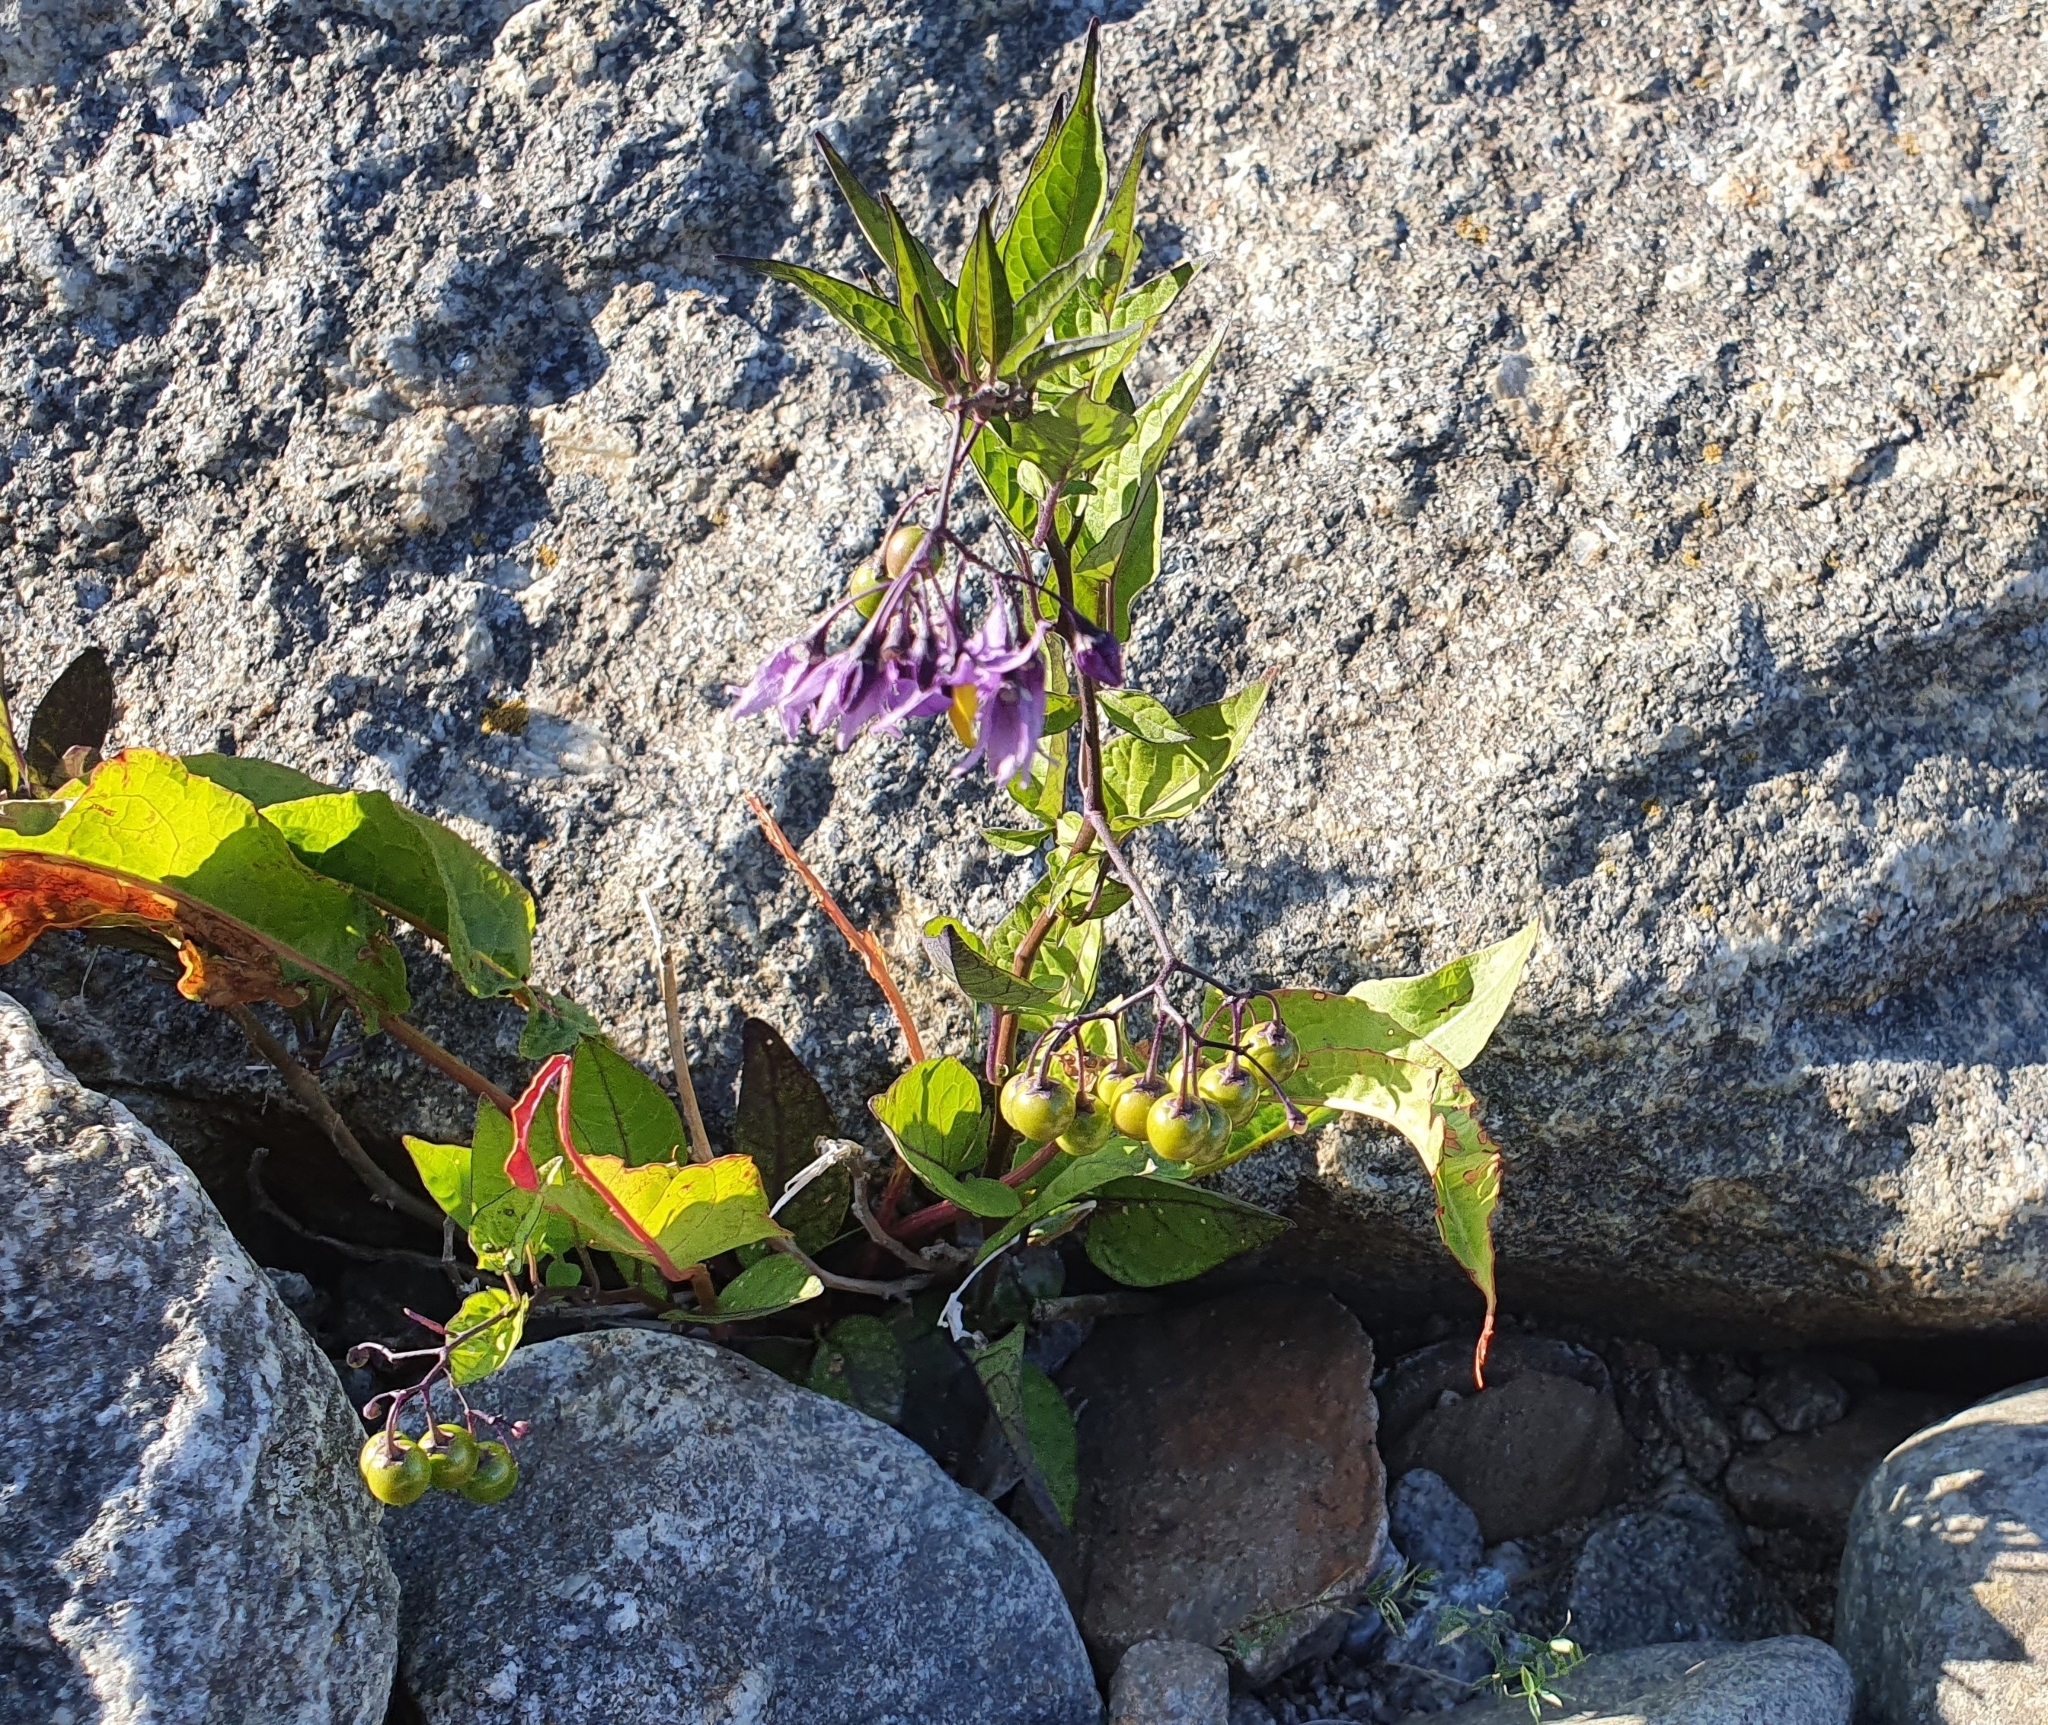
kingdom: Plantae
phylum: Tracheophyta
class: Magnoliopsida
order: Solanales
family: Solanaceae
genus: Solanum
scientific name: Solanum dulcamara
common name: Climbing nightshade
